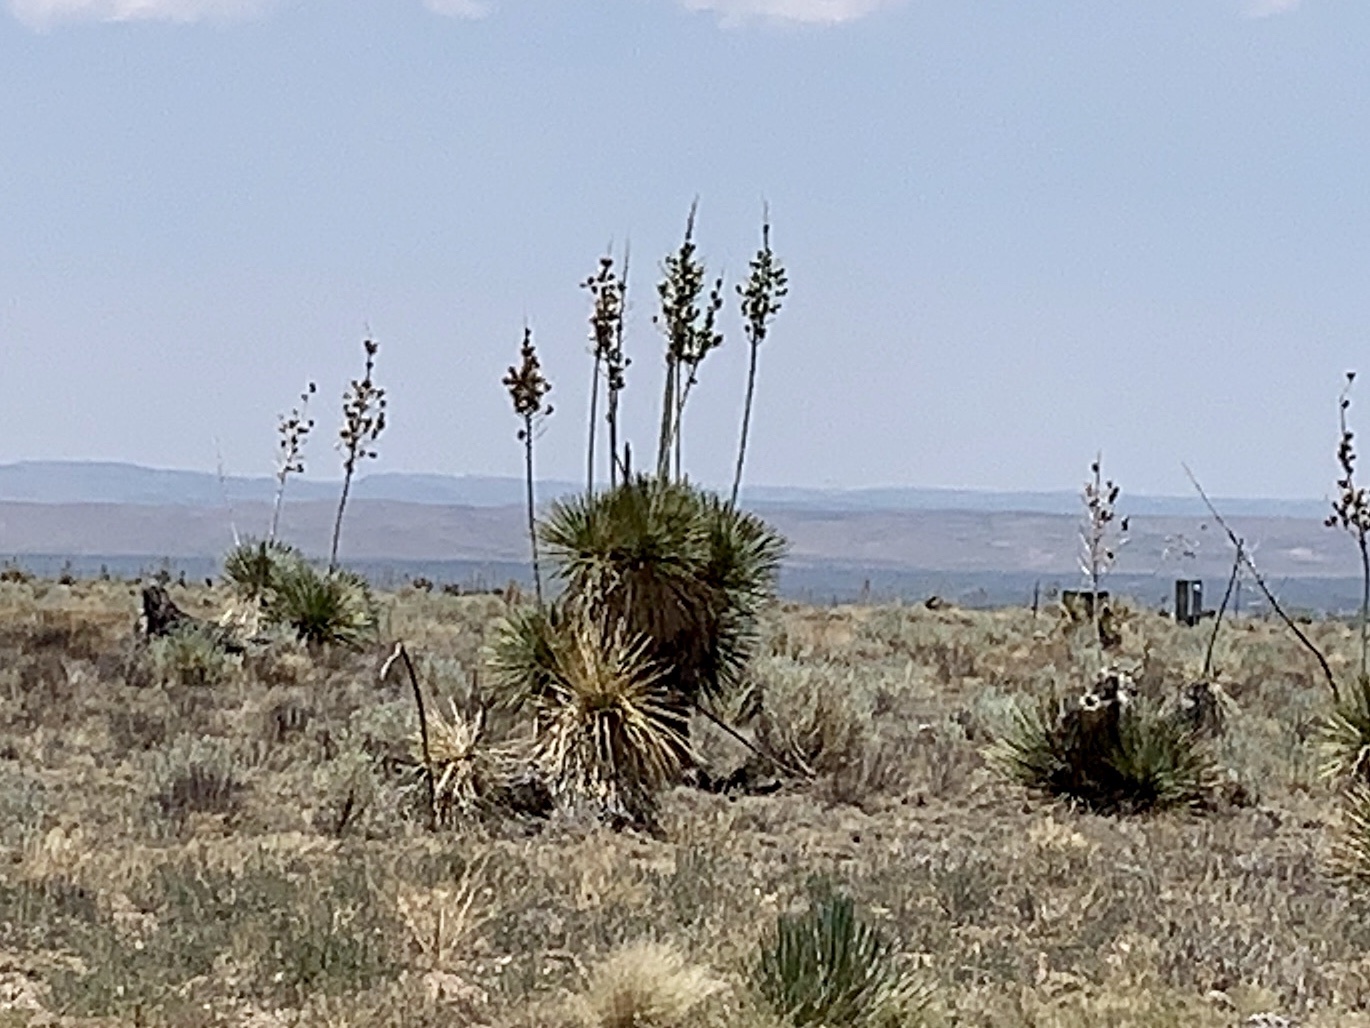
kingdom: Plantae
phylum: Tracheophyta
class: Liliopsida
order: Asparagales
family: Asparagaceae
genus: Yucca
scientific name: Yucca elata
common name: Palmella
